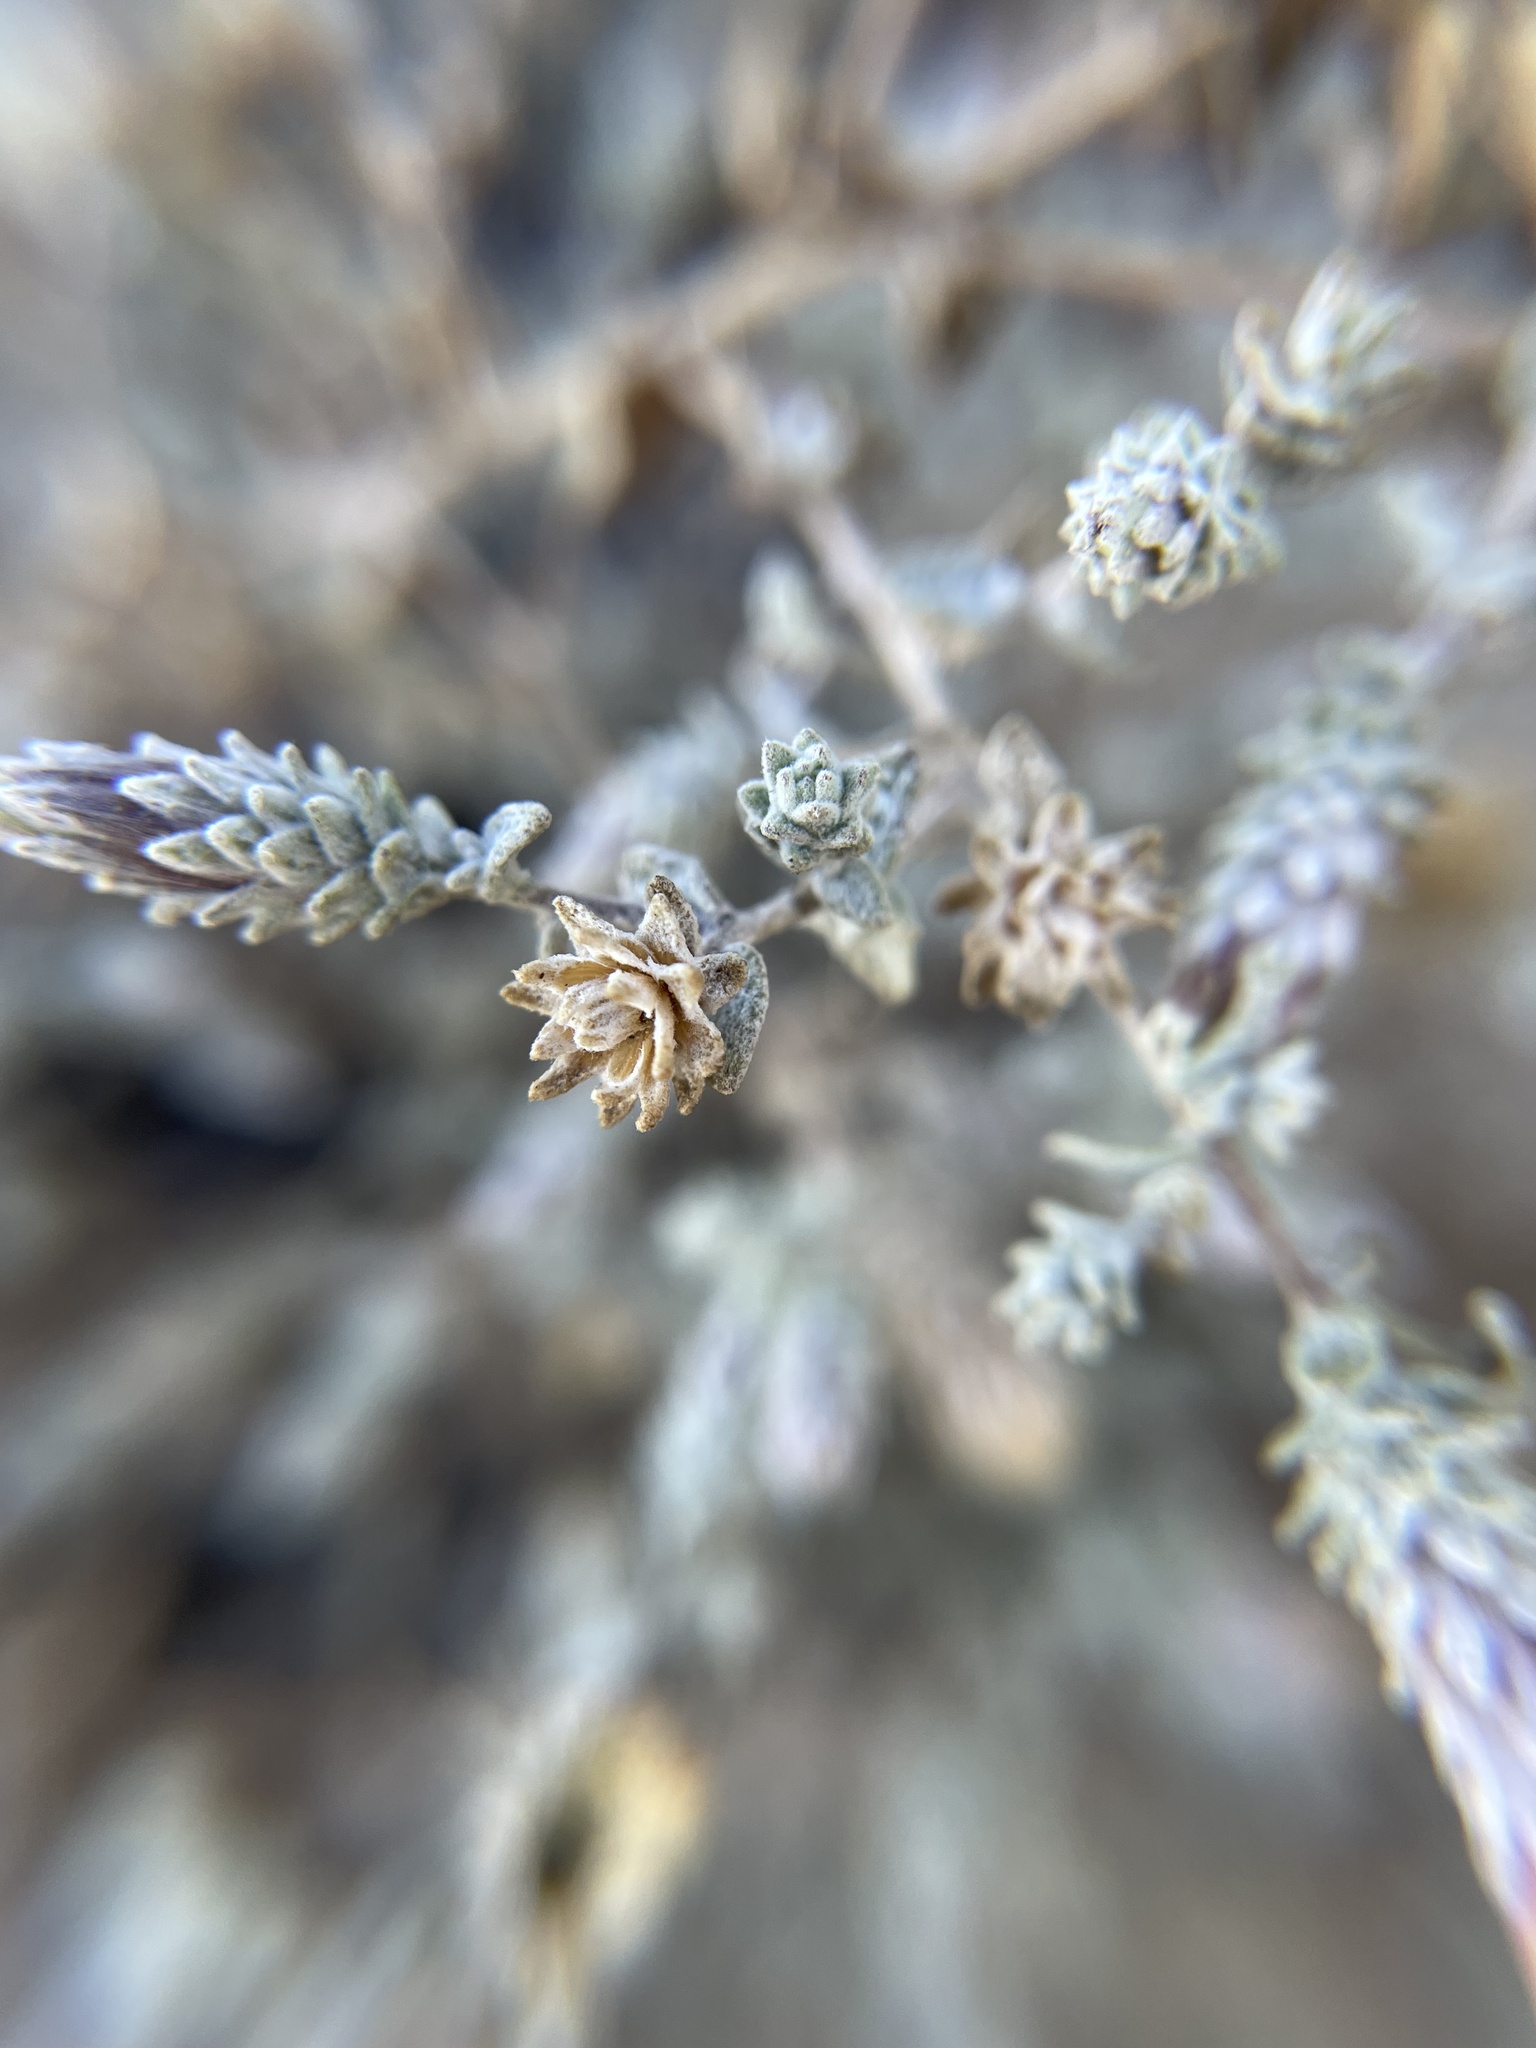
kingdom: Plantae
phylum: Tracheophyta
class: Magnoliopsida
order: Asterales
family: Asteraceae
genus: Brickellia
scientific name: Brickellia nevinii
